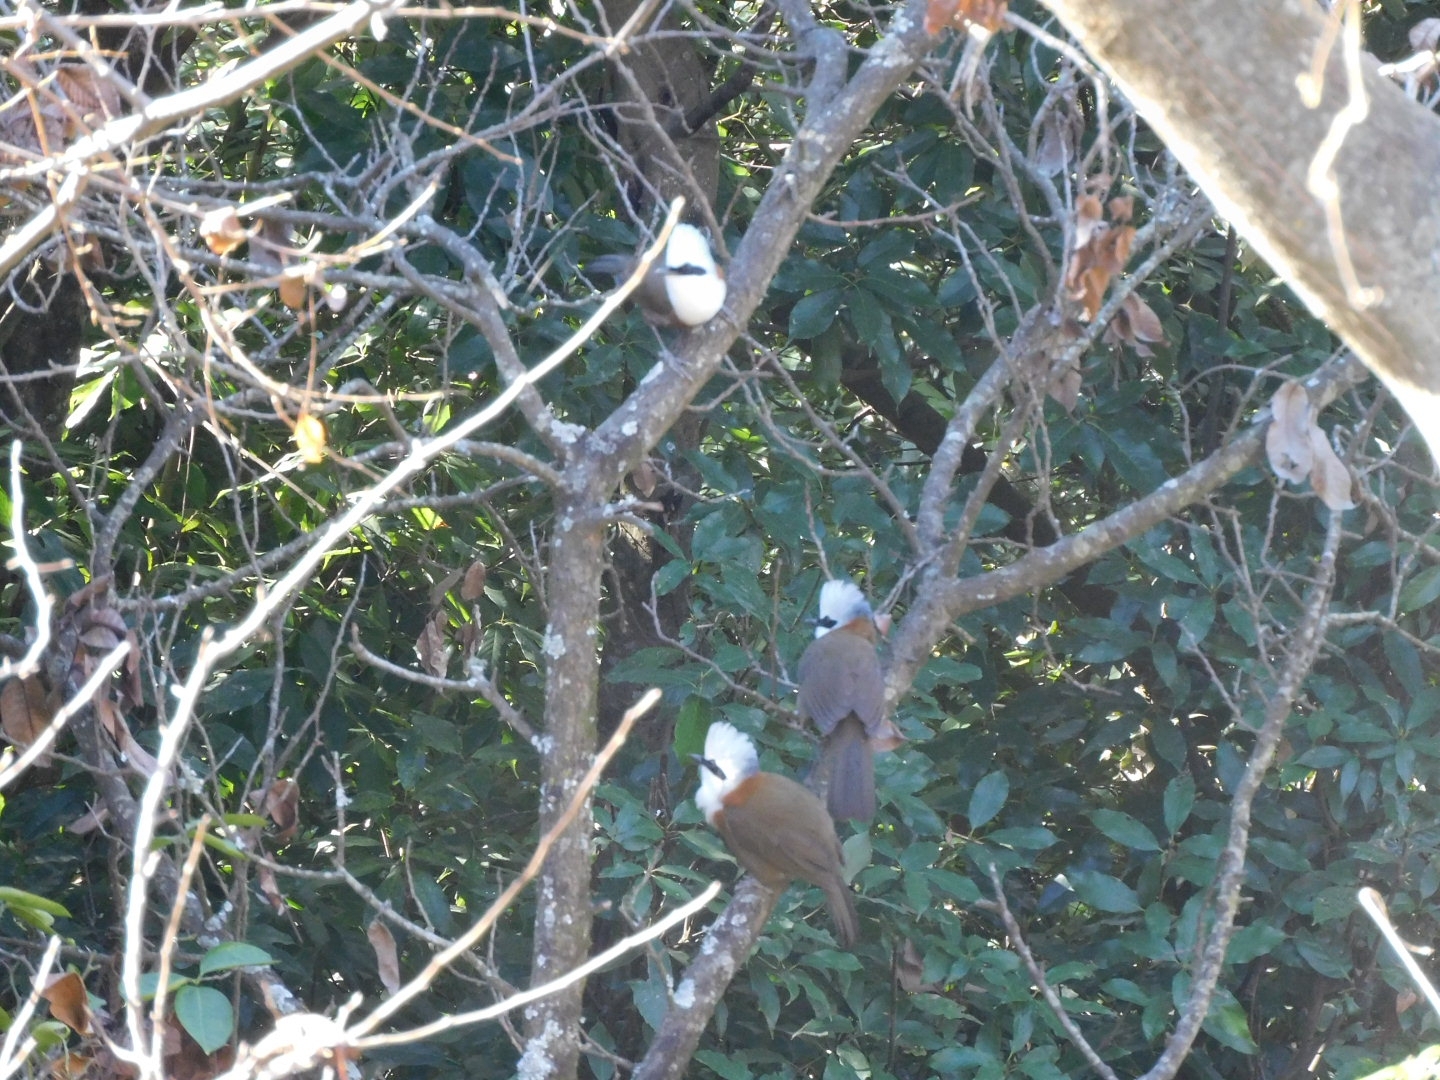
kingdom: Animalia
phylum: Chordata
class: Aves
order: Passeriformes
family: Leiothrichidae
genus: Garrulax
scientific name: Garrulax leucolophus
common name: White-crested laughingthrush
